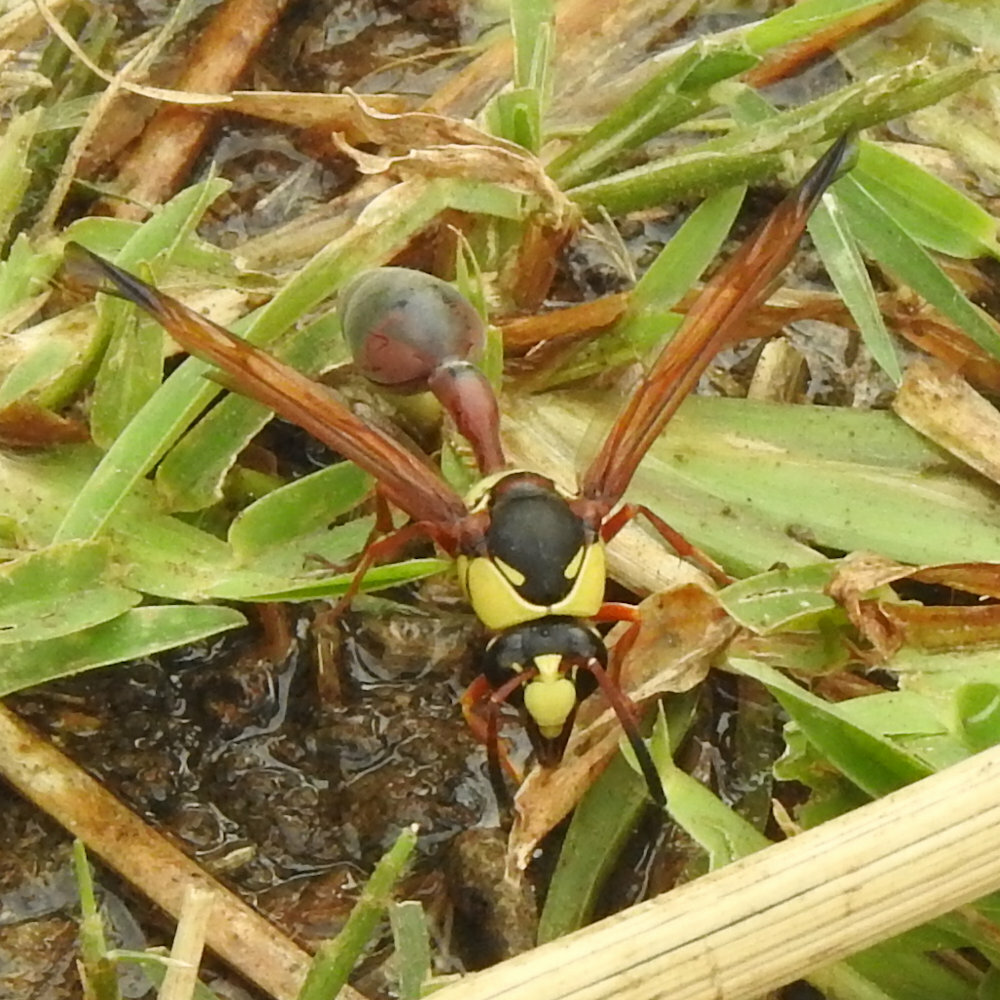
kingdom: Animalia
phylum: Arthropoda
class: Insecta
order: Hymenoptera
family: Eumenidae
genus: Delta
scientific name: Delta tropicale
